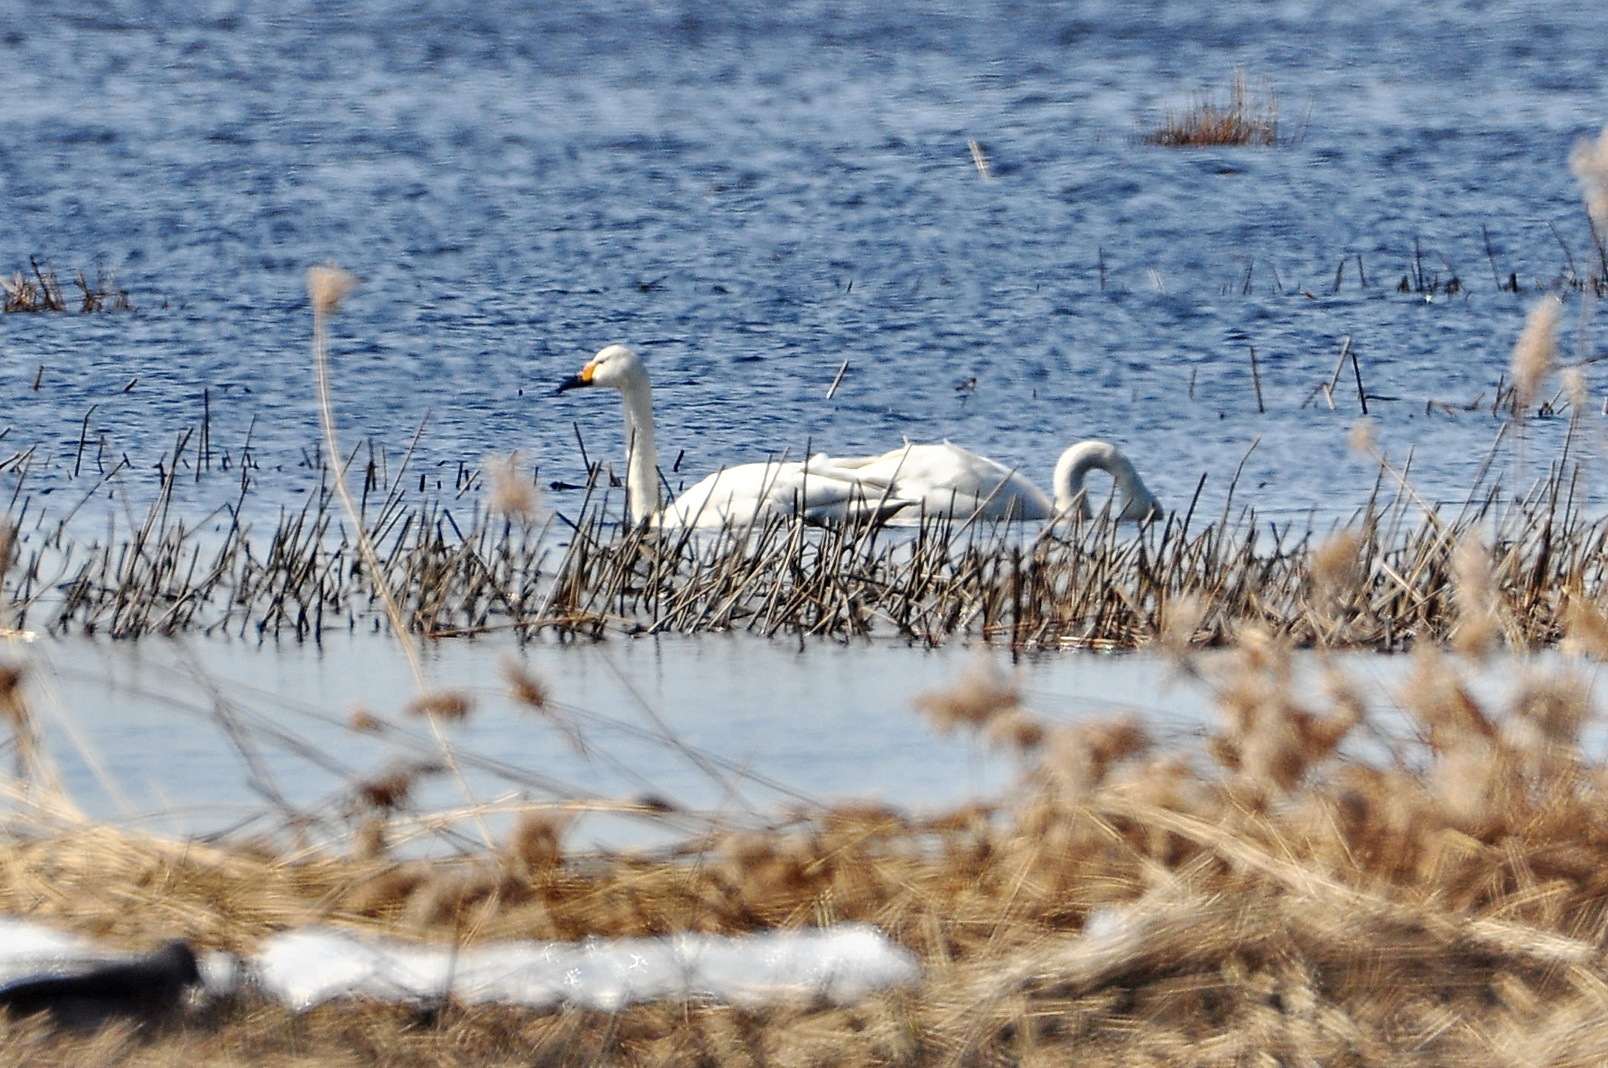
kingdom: Animalia
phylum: Chordata
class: Aves
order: Anseriformes
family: Anatidae
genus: Cygnus
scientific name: Cygnus columbianus
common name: Tundra swan
